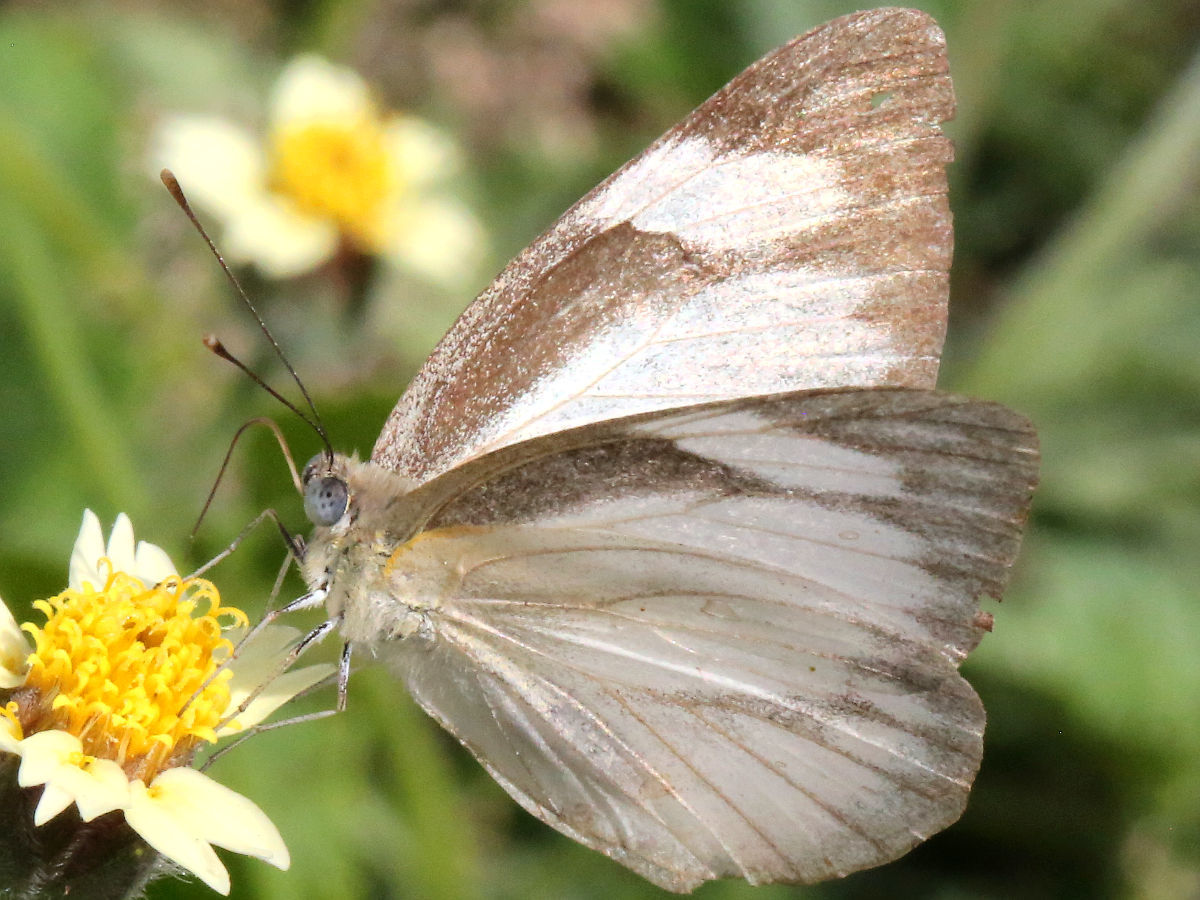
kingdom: Animalia
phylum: Arthropoda
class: Insecta
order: Lepidoptera
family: Pieridae
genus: Appias
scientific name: Appias libythea
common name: Striped albatross
